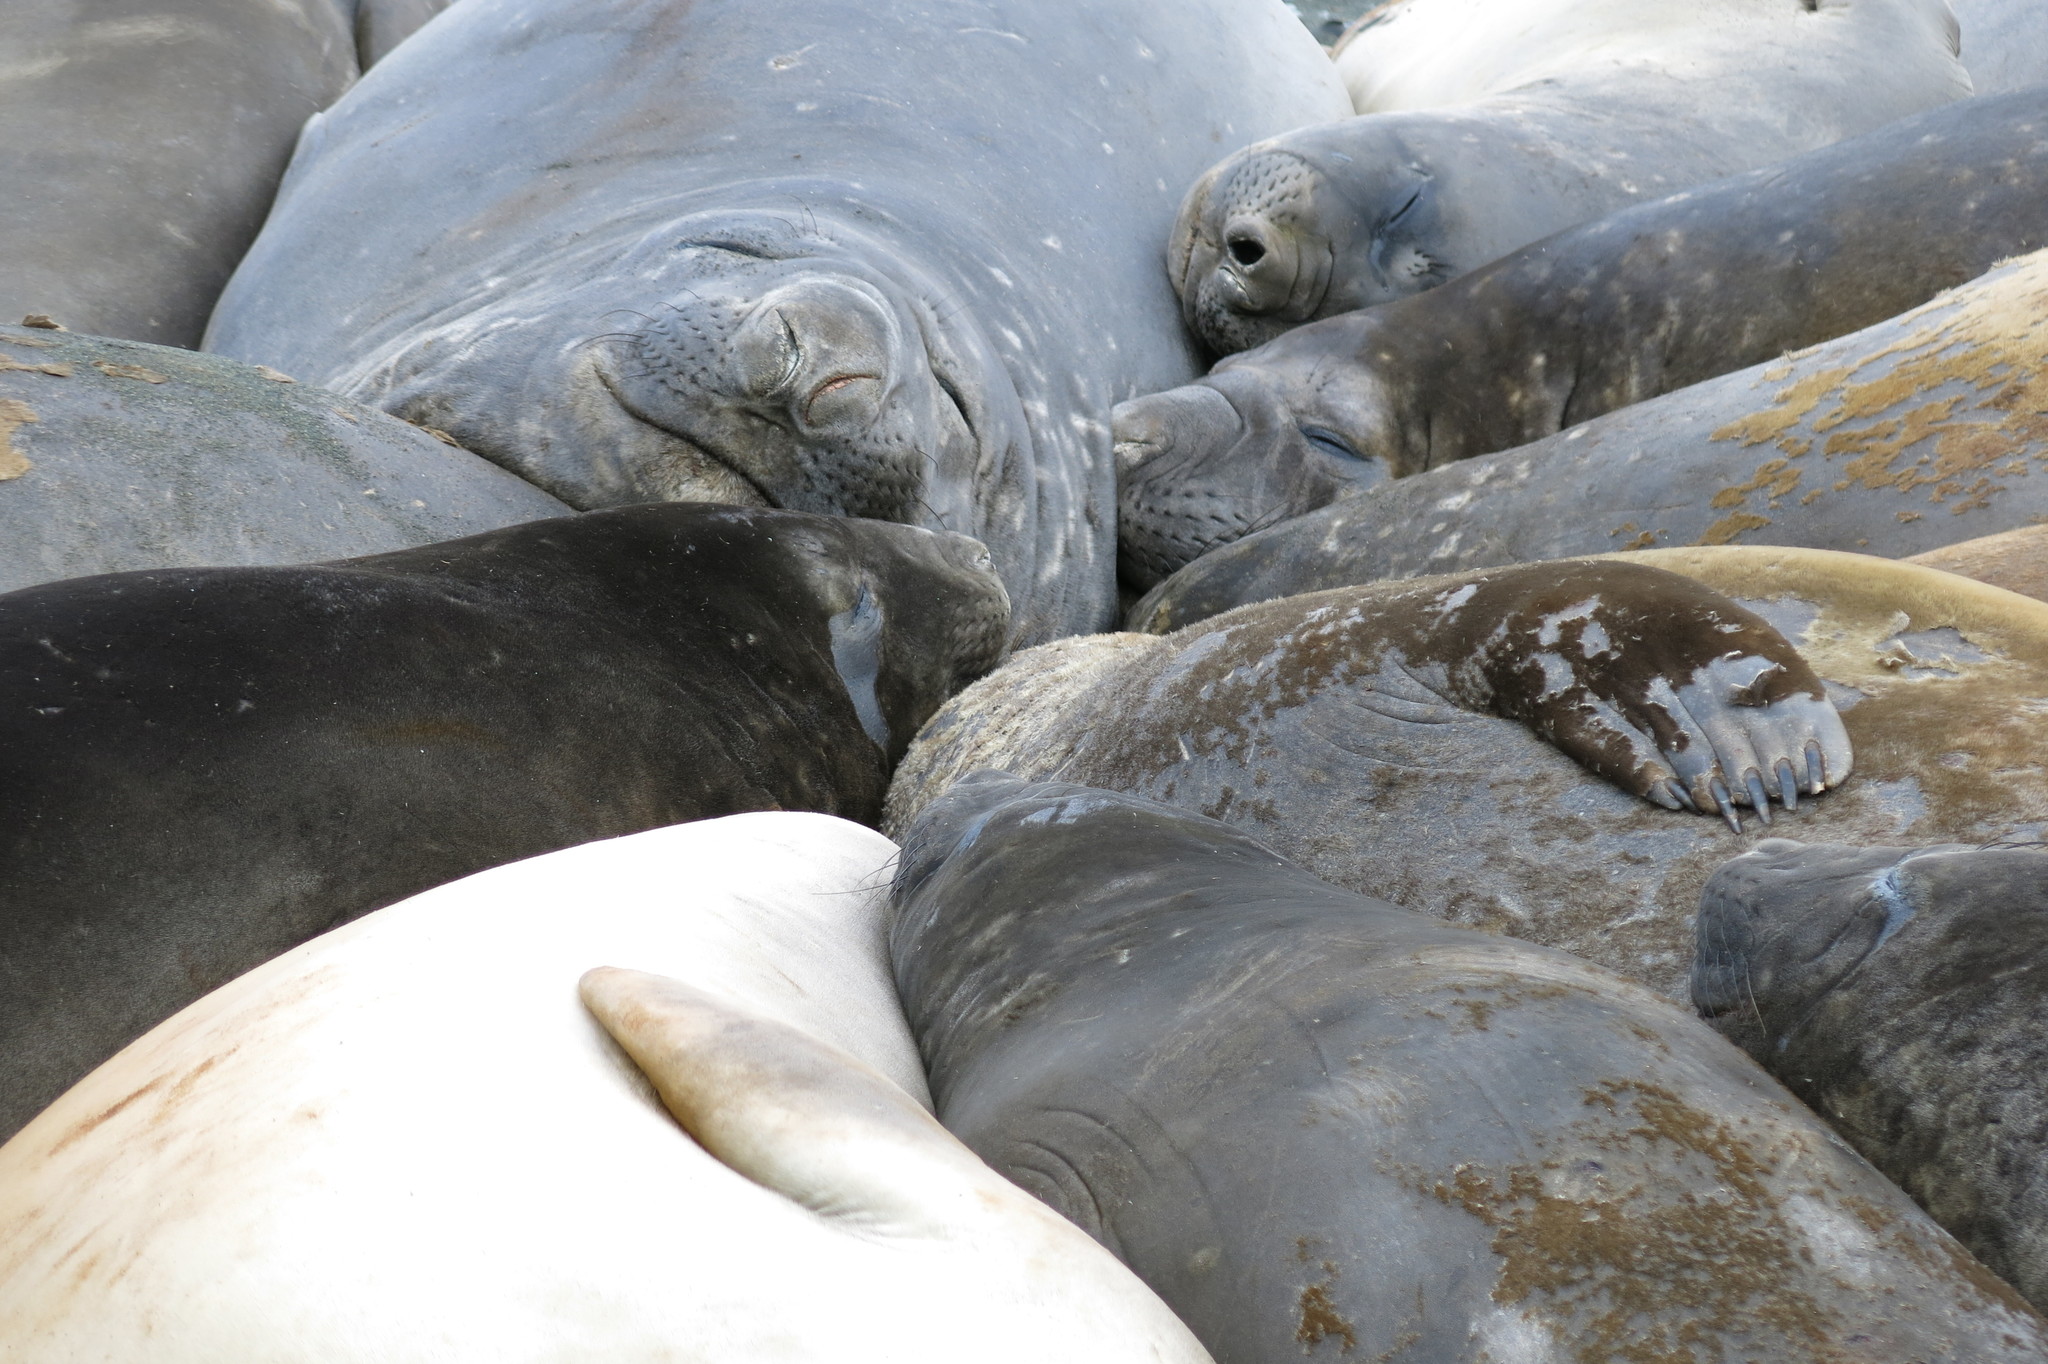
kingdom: Animalia
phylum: Chordata
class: Mammalia
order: Carnivora
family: Phocidae
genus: Mirounga
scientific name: Mirounga leonina
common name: Southern elephant seal
